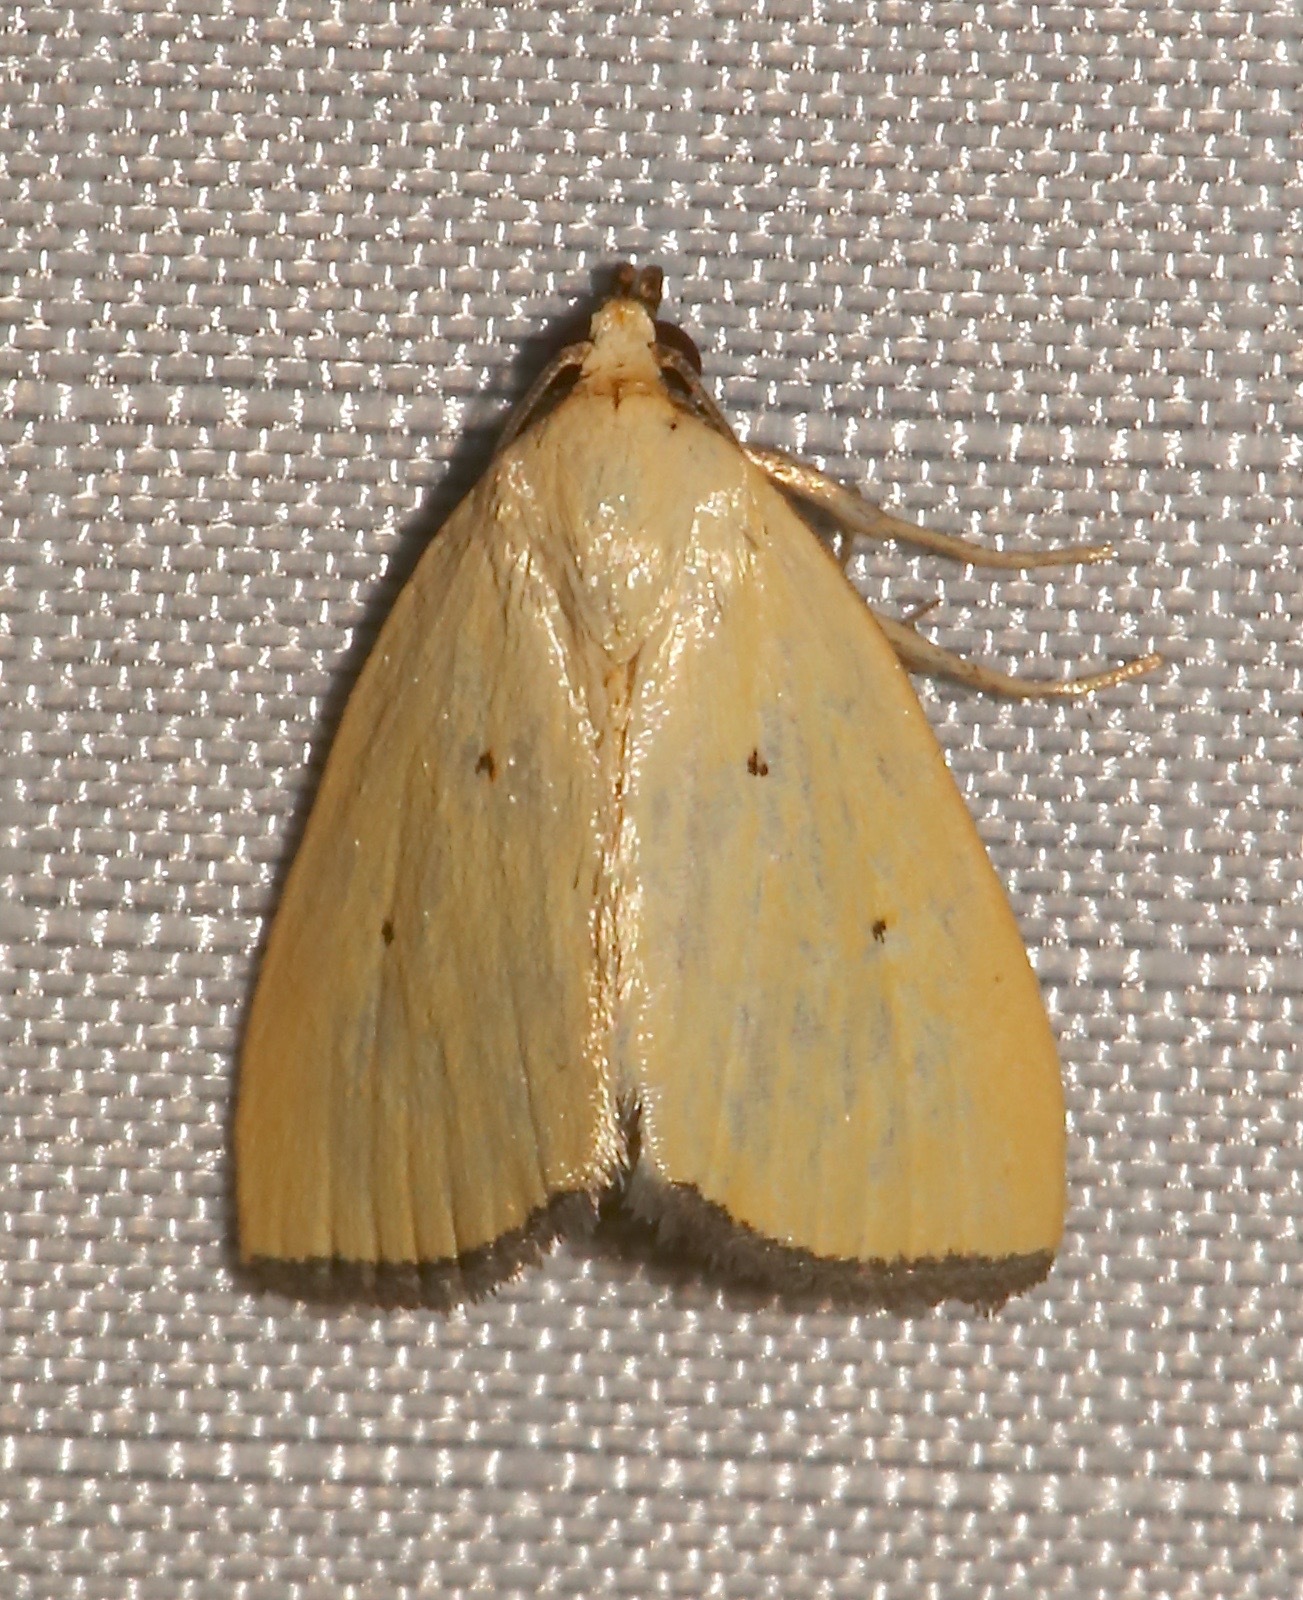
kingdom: Animalia
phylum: Arthropoda
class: Insecta
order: Lepidoptera
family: Noctuidae
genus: Marimatha
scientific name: Marimatha nigrofimbria
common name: Black-bordered lemon moth
